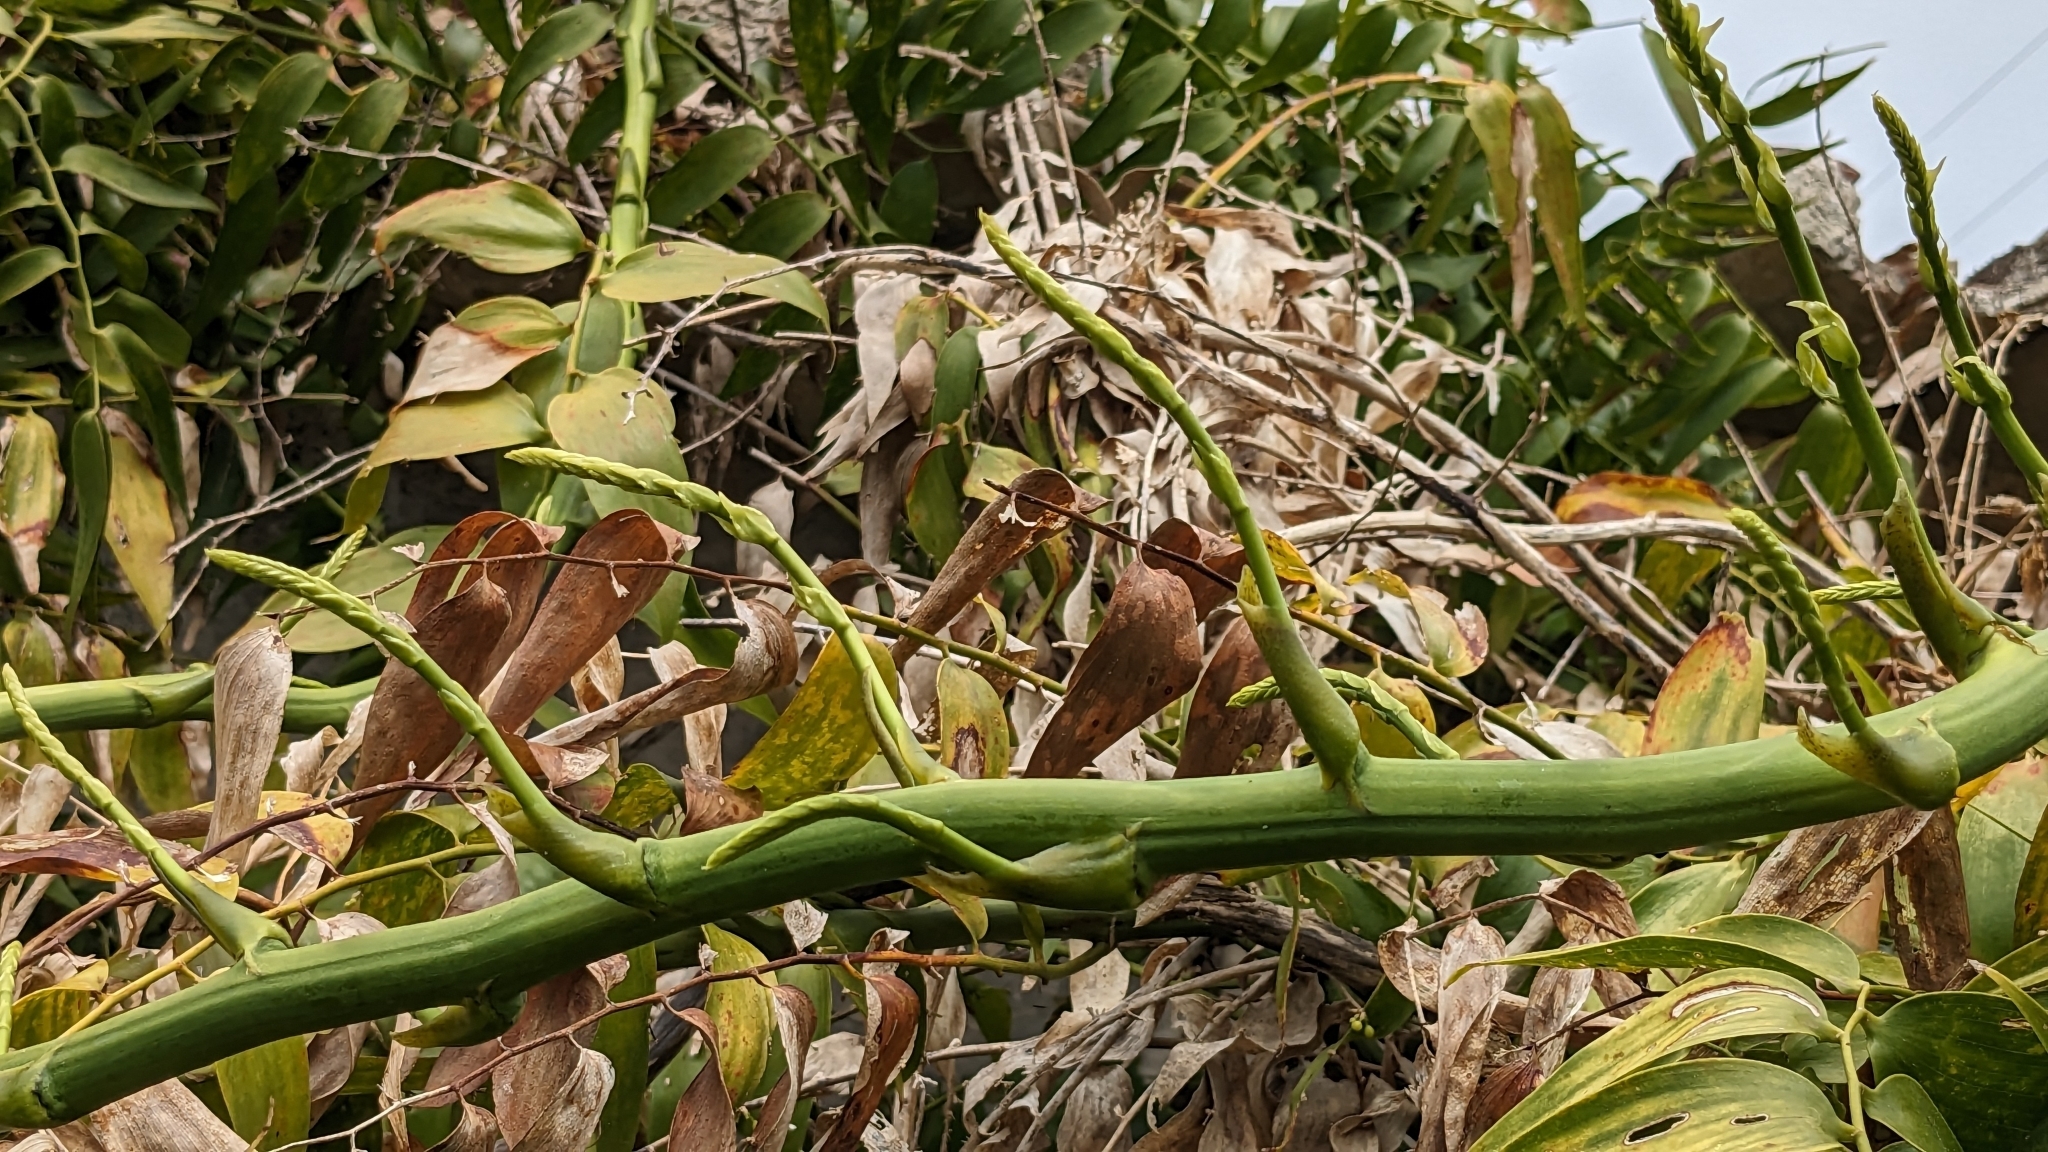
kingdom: Plantae
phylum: Tracheophyta
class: Liliopsida
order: Asparagales
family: Asparagaceae
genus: Semele
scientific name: Semele androgyna
